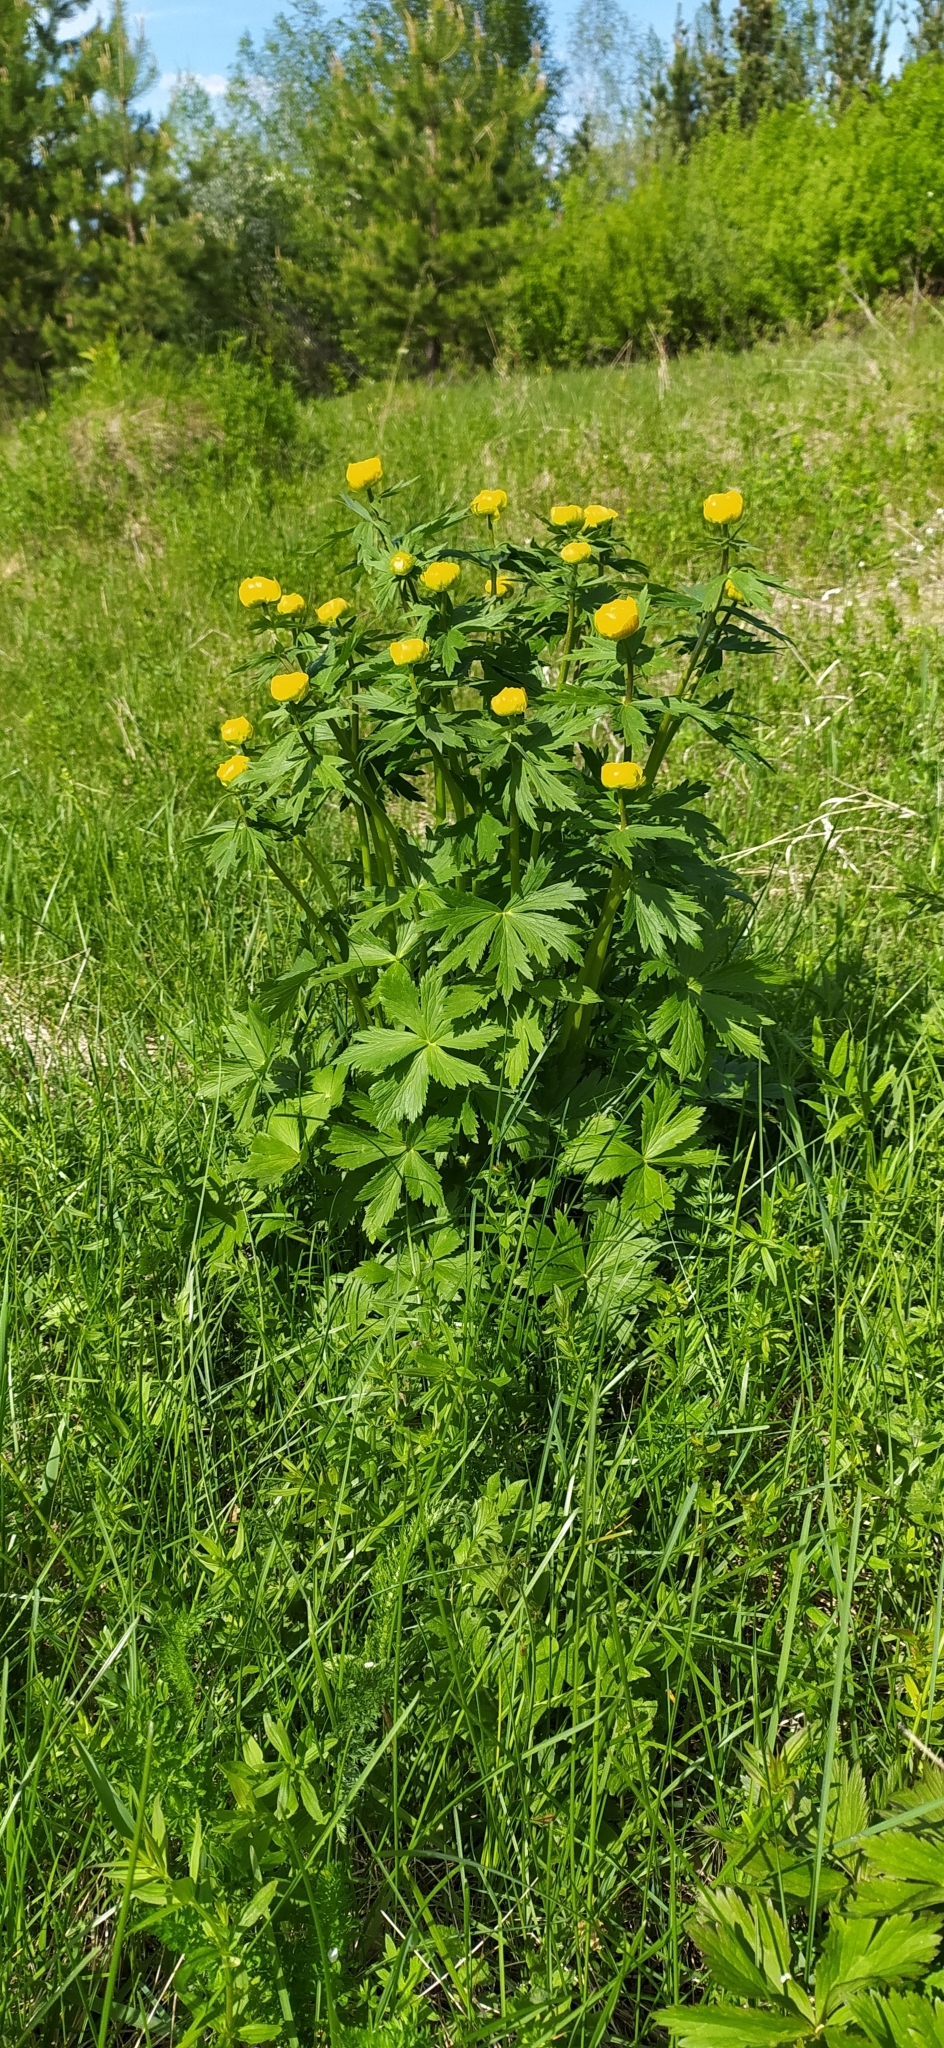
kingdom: Plantae
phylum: Tracheophyta
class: Magnoliopsida
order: Ranunculales
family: Ranunculaceae
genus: Trollius
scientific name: Trollius europaeus
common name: European globeflower
